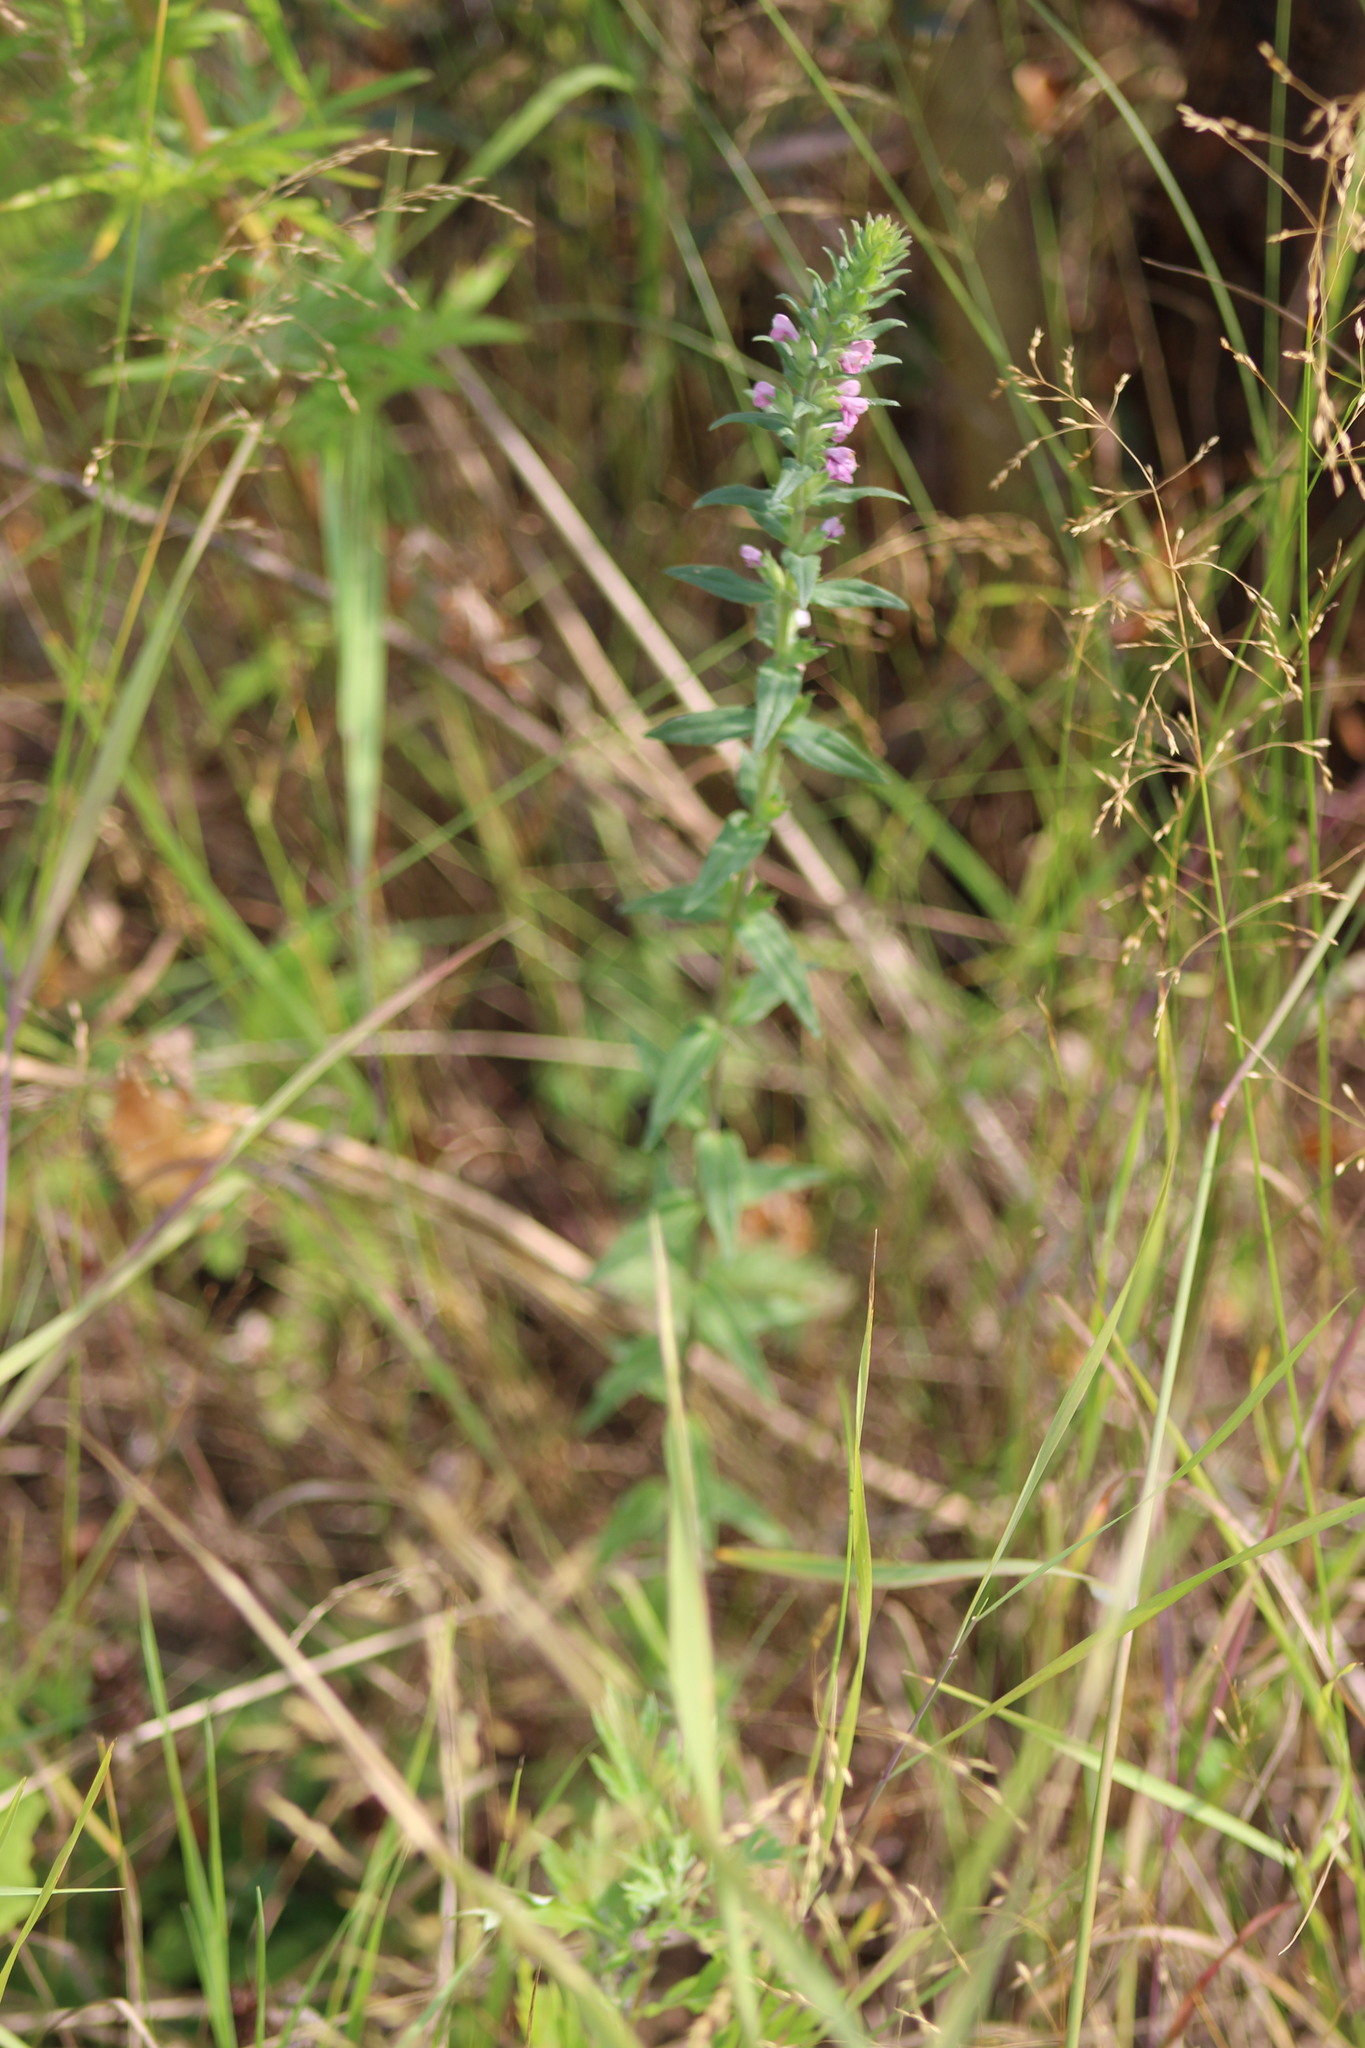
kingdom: Plantae
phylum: Tracheophyta
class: Magnoliopsida
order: Lamiales
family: Orobanchaceae
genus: Odontites
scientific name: Odontites vulgaris
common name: Broomrape
